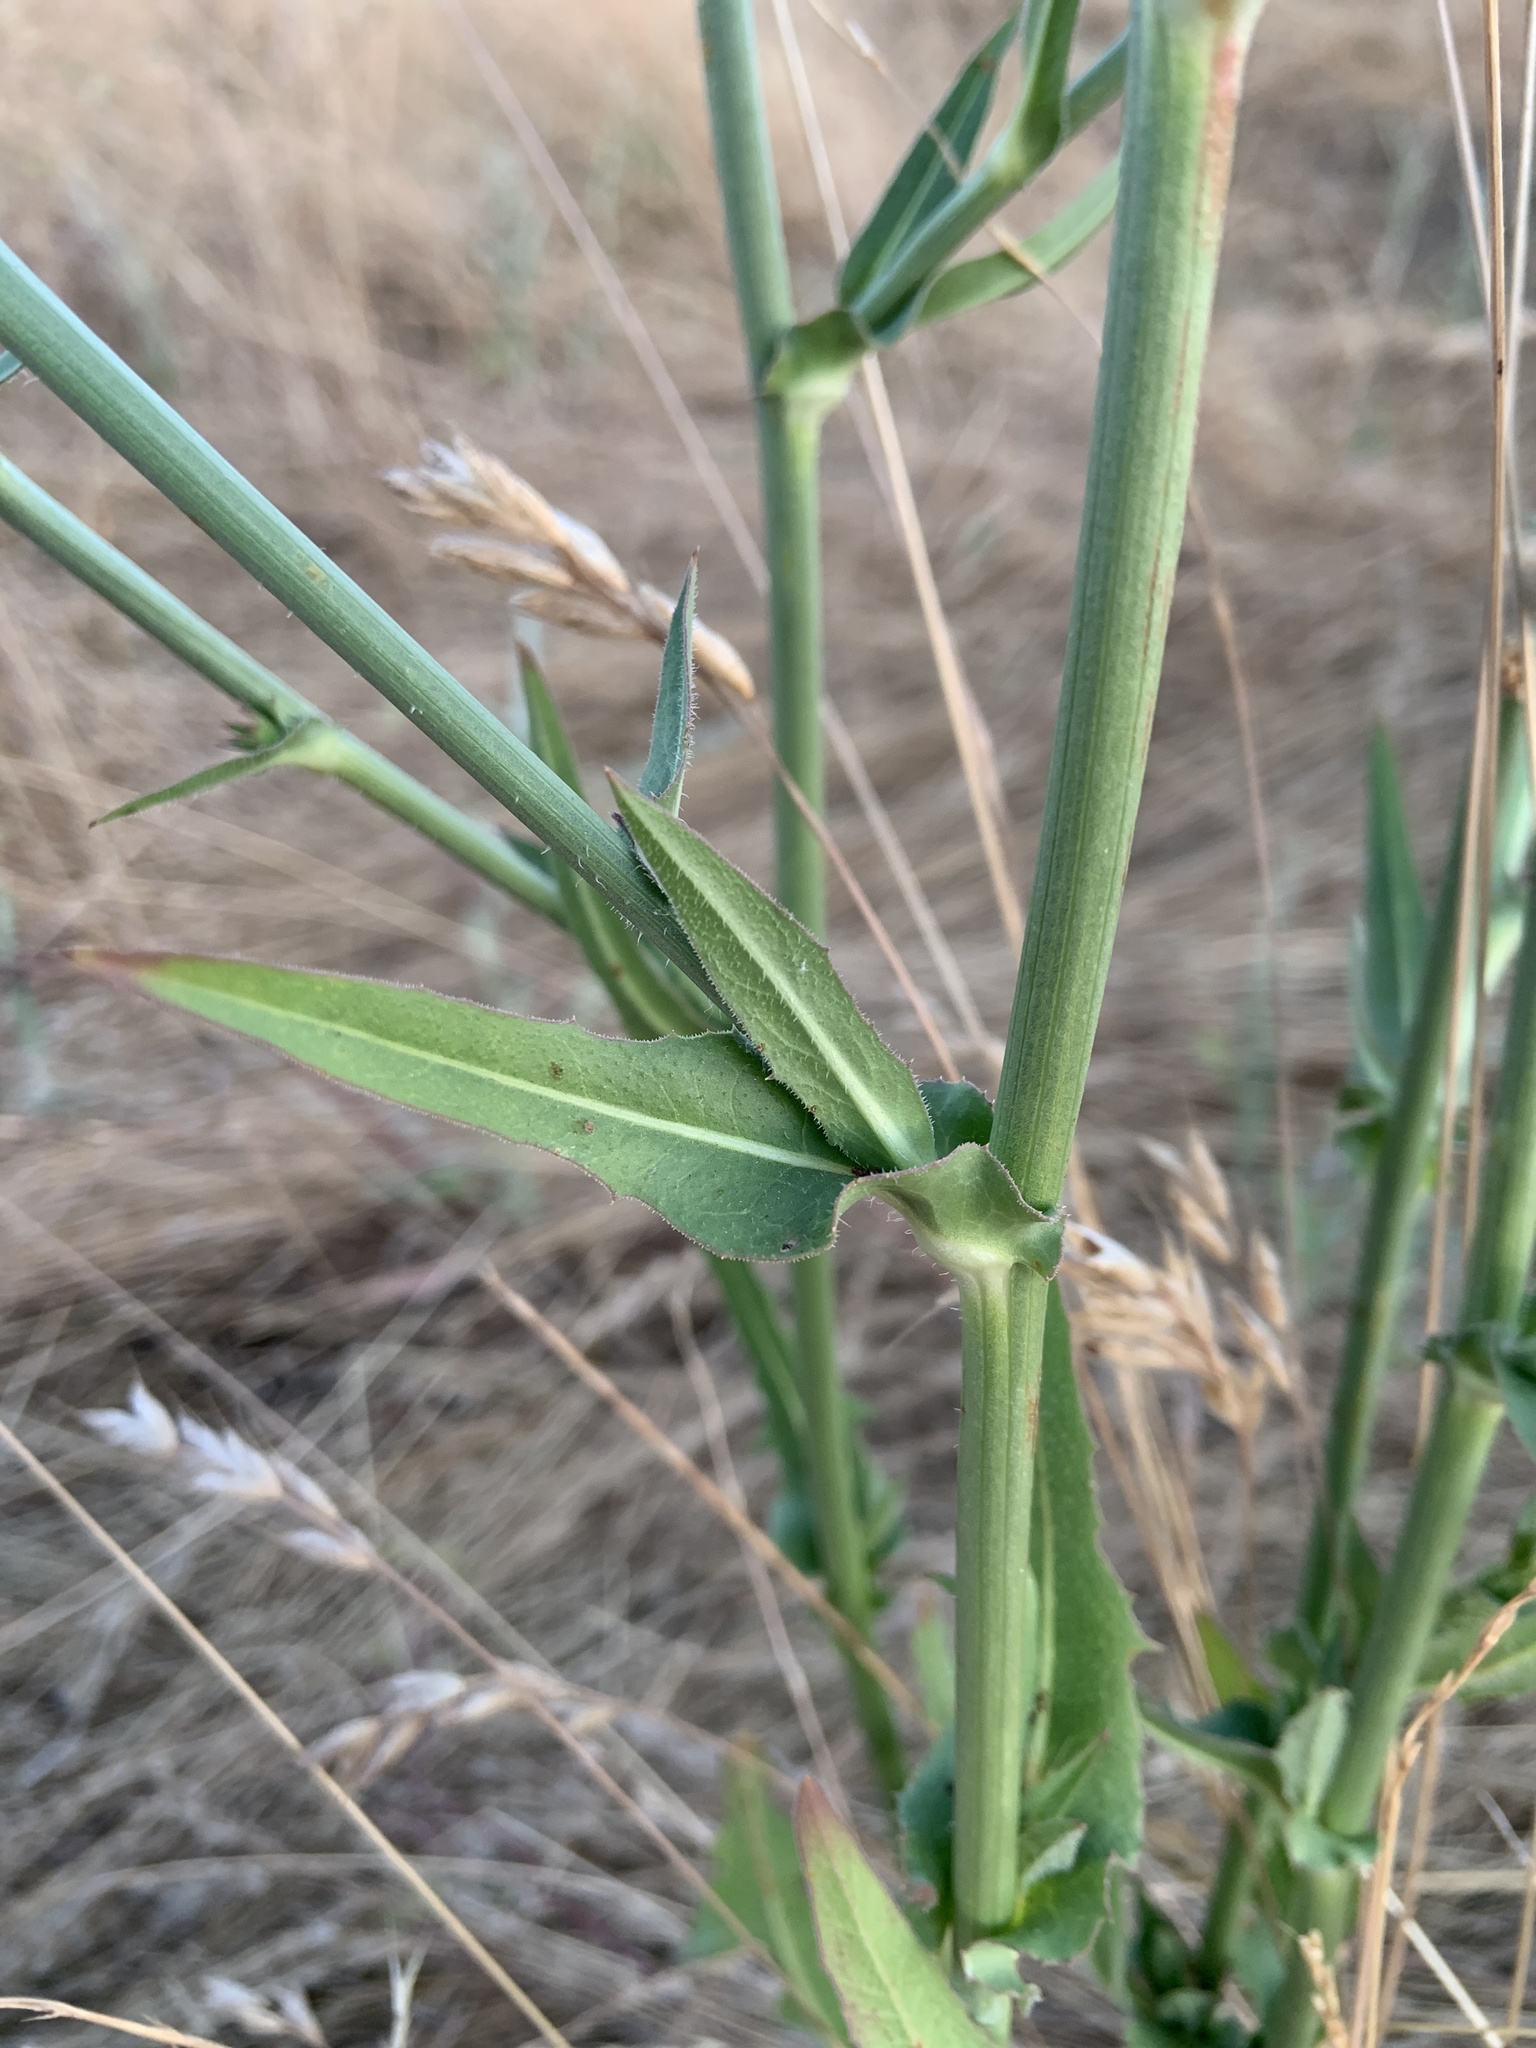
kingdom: Plantae
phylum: Tracheophyta
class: Magnoliopsida
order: Asterales
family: Asteraceae
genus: Cichorium
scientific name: Cichorium intybus
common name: Chicory
